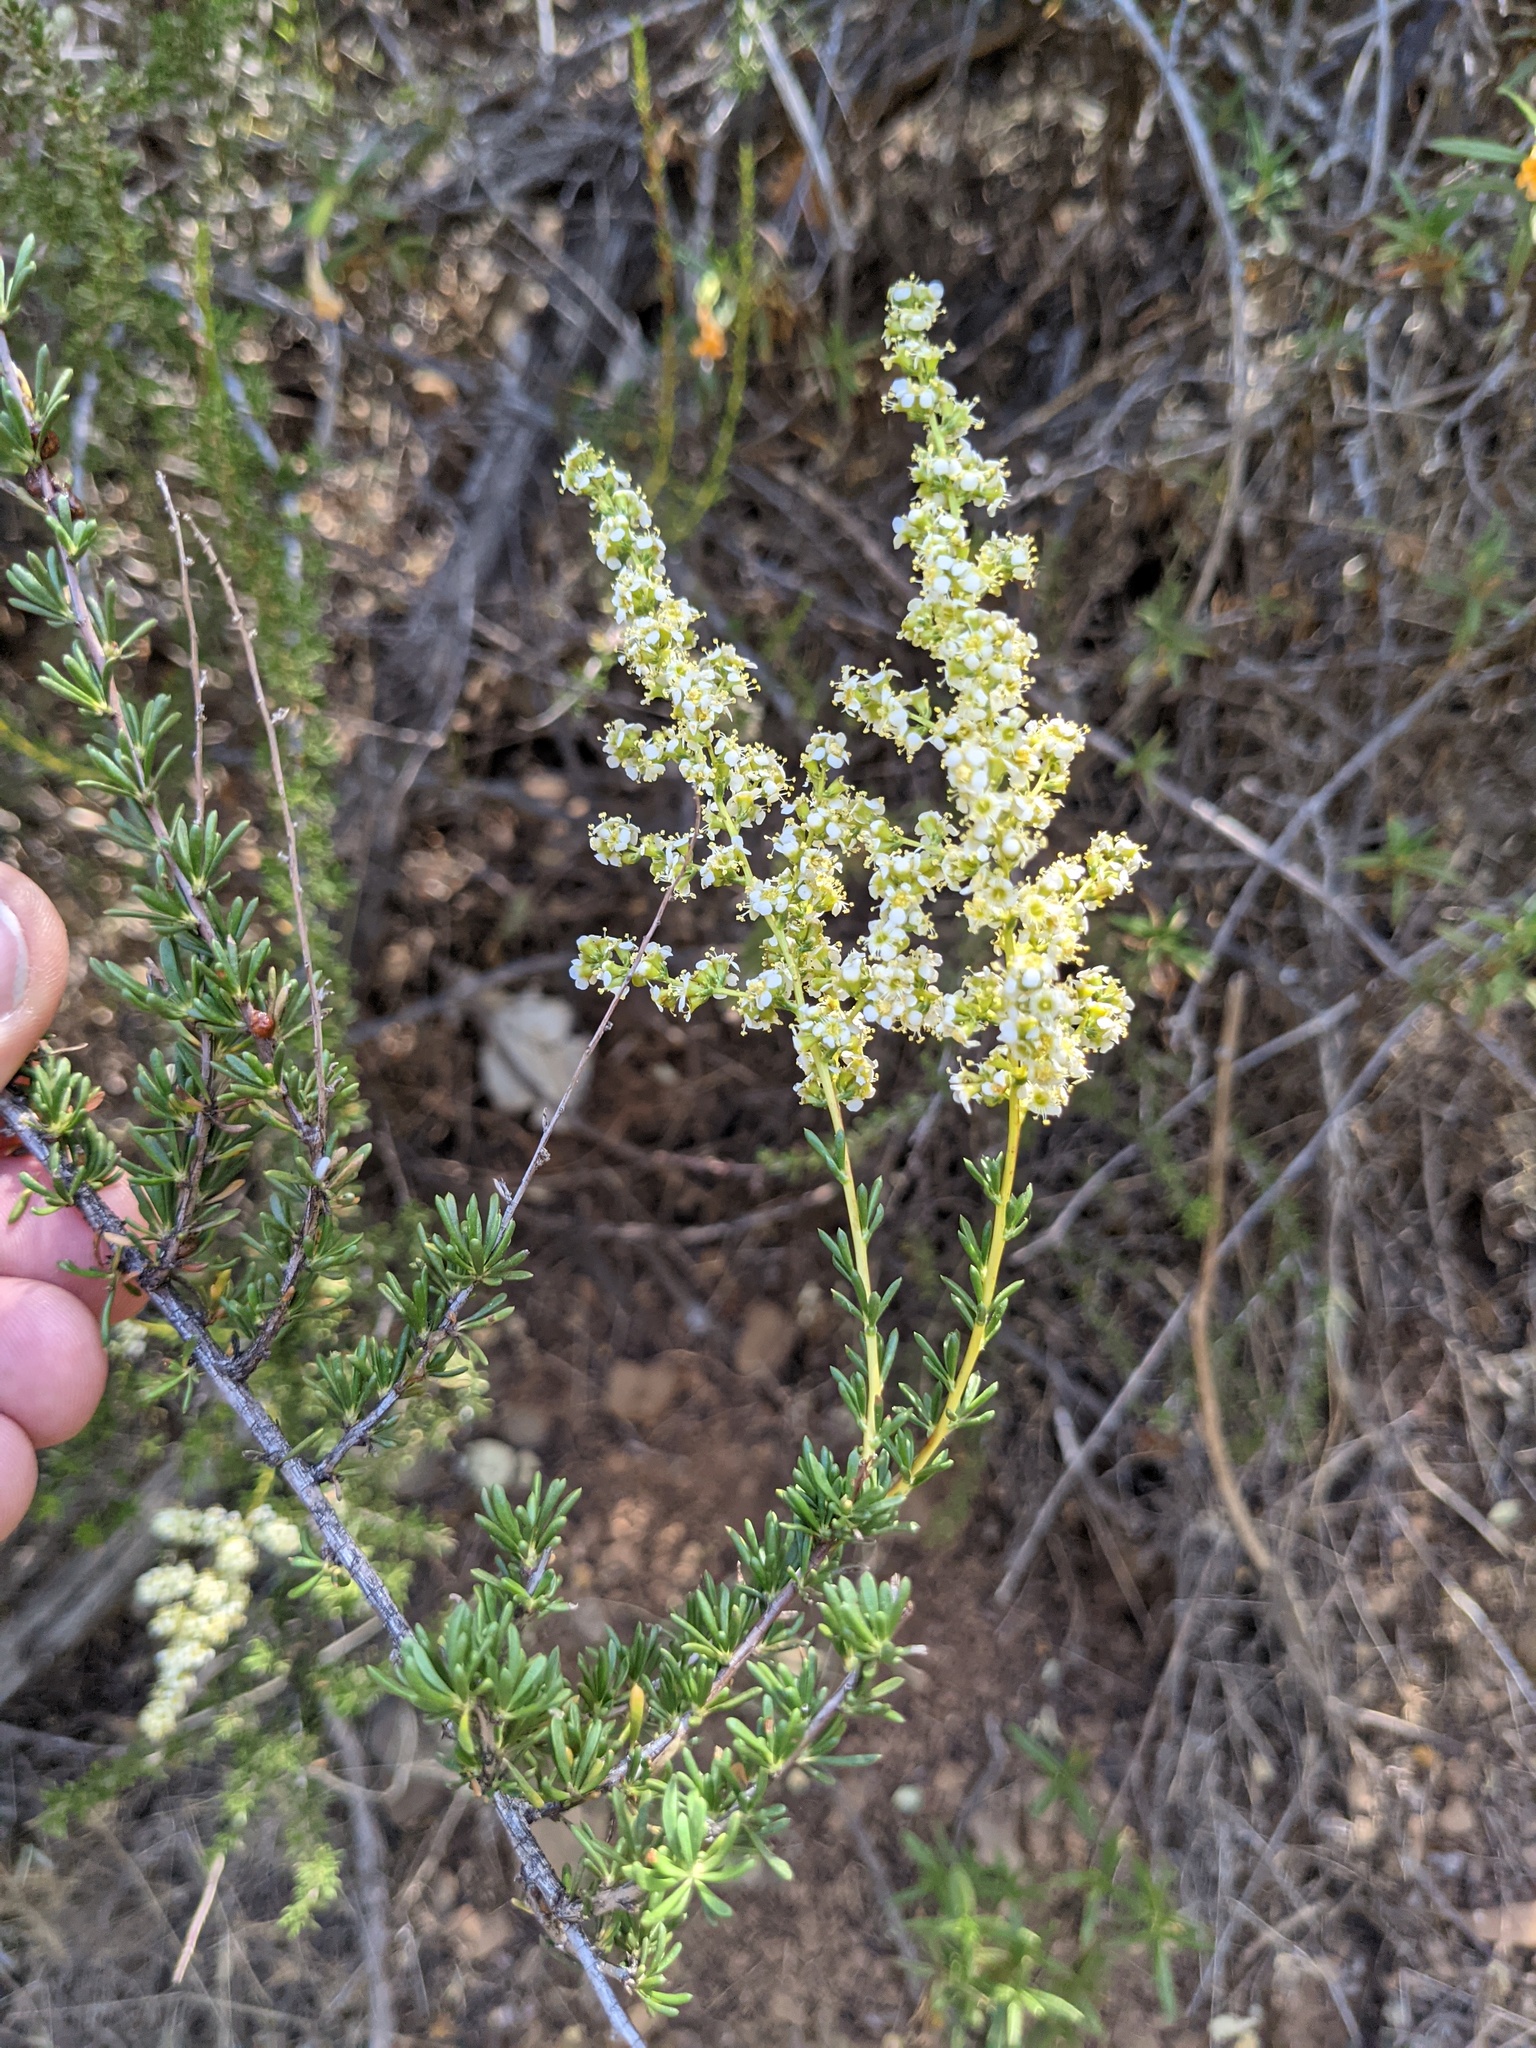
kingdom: Plantae
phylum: Tracheophyta
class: Magnoliopsida
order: Rosales
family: Rosaceae
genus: Adenostoma
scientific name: Adenostoma fasciculatum
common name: Chamise
